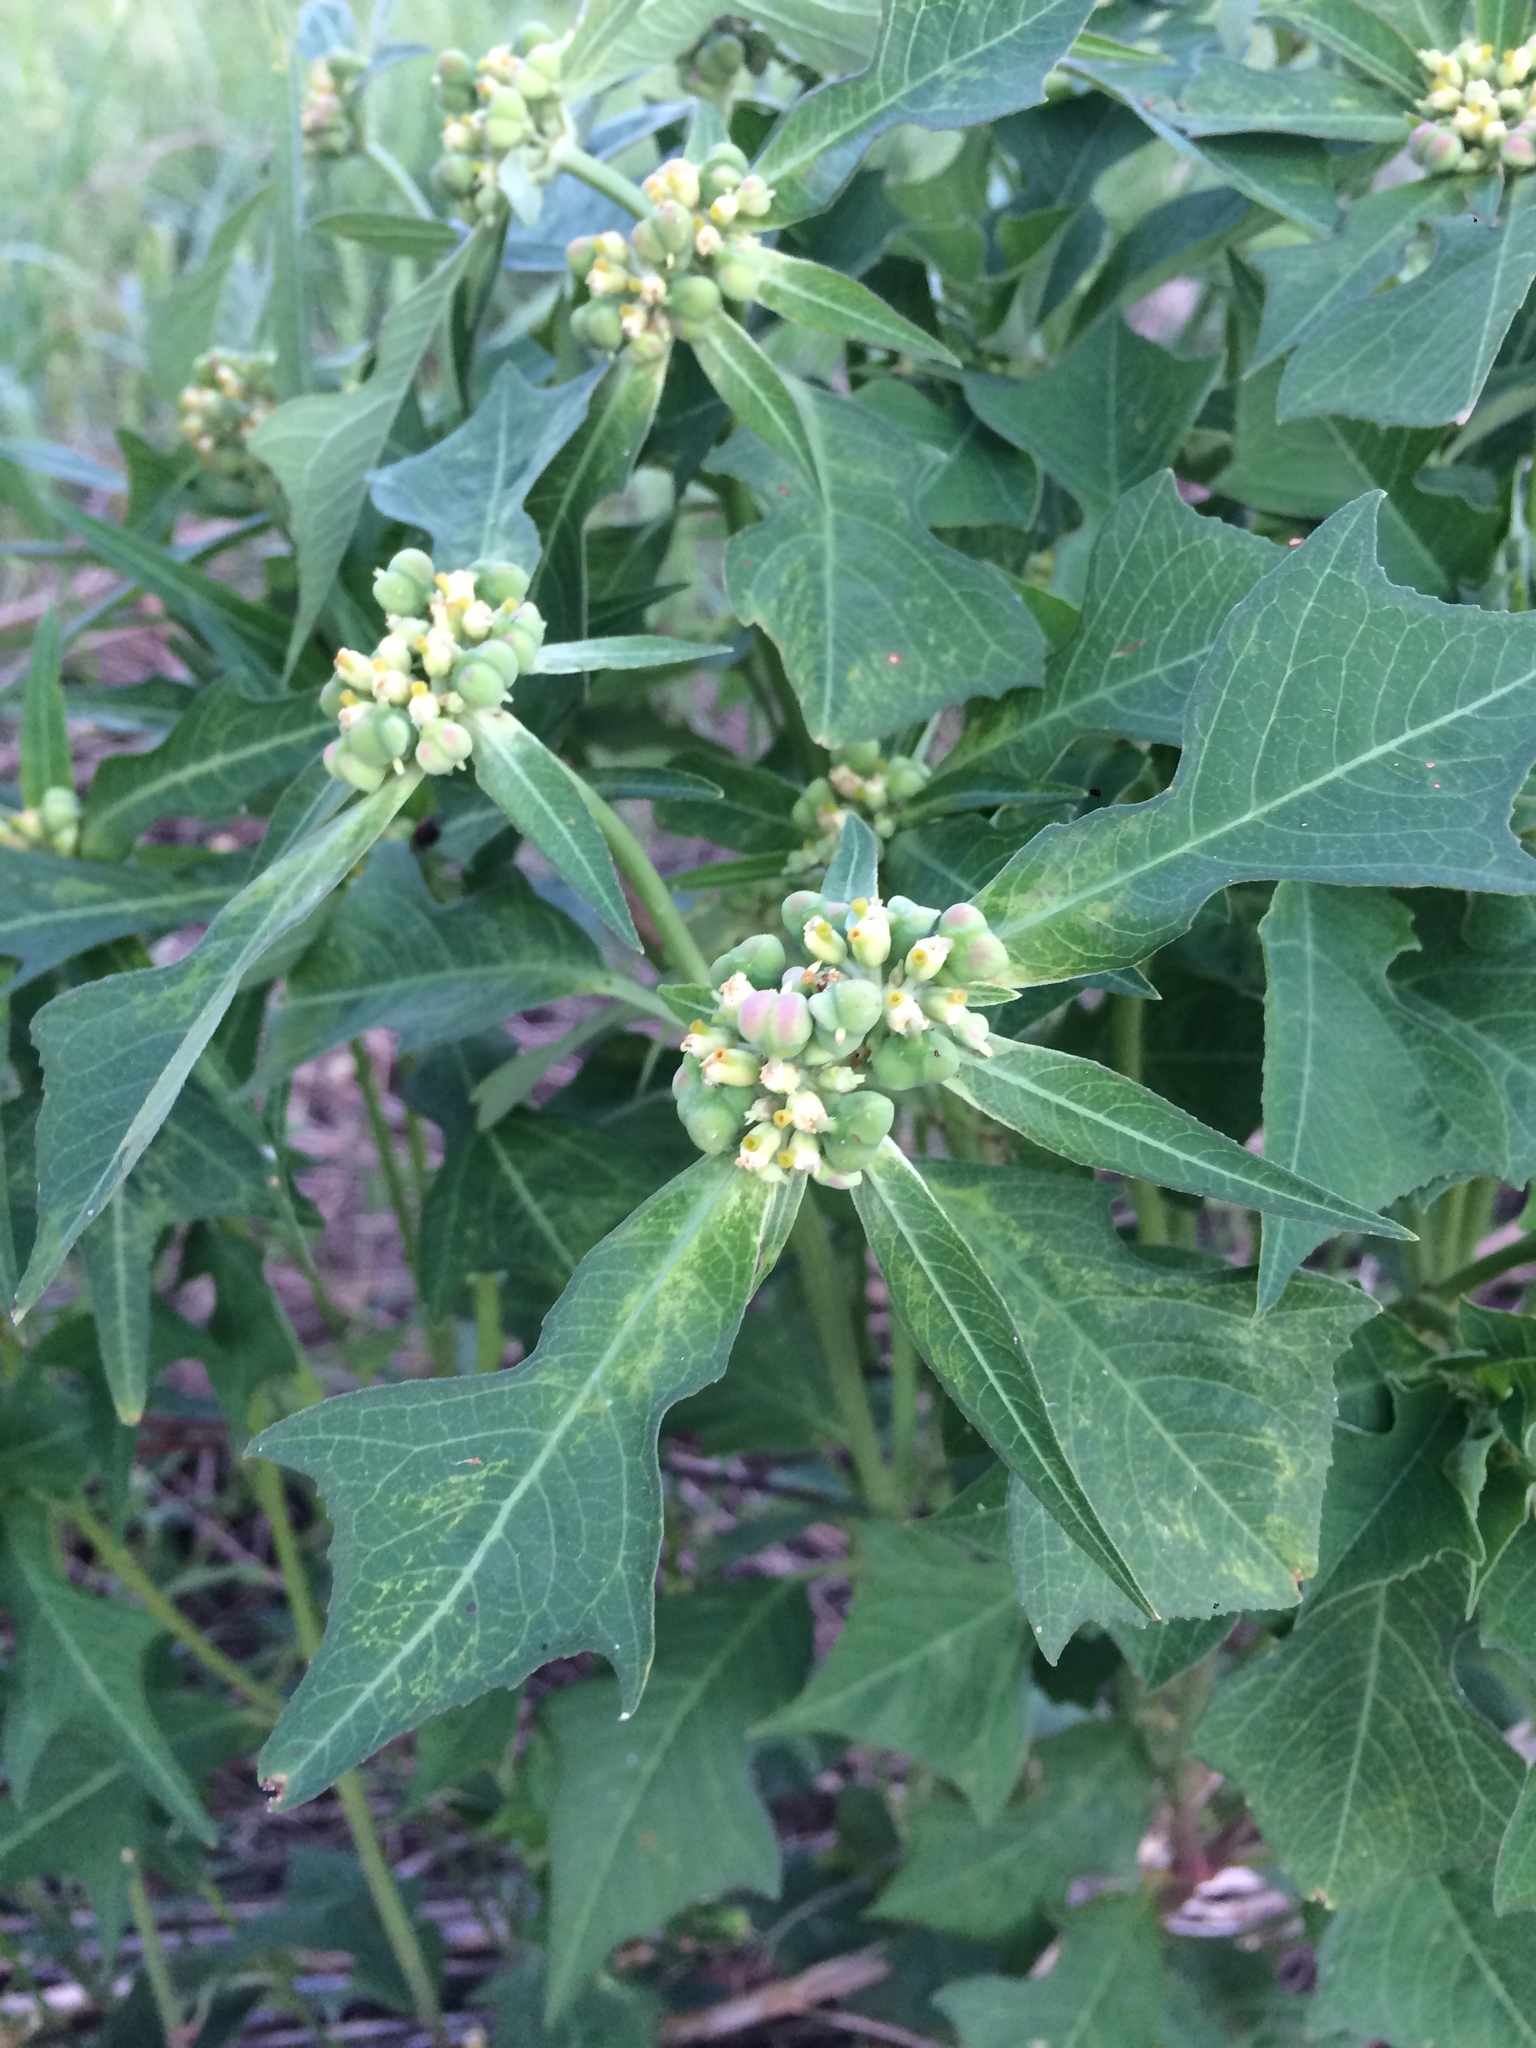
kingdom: Plantae
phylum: Tracheophyta
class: Magnoliopsida
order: Malpighiales
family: Euphorbiaceae
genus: Euphorbia
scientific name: Euphorbia heterophylla
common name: Mexican fireplant
